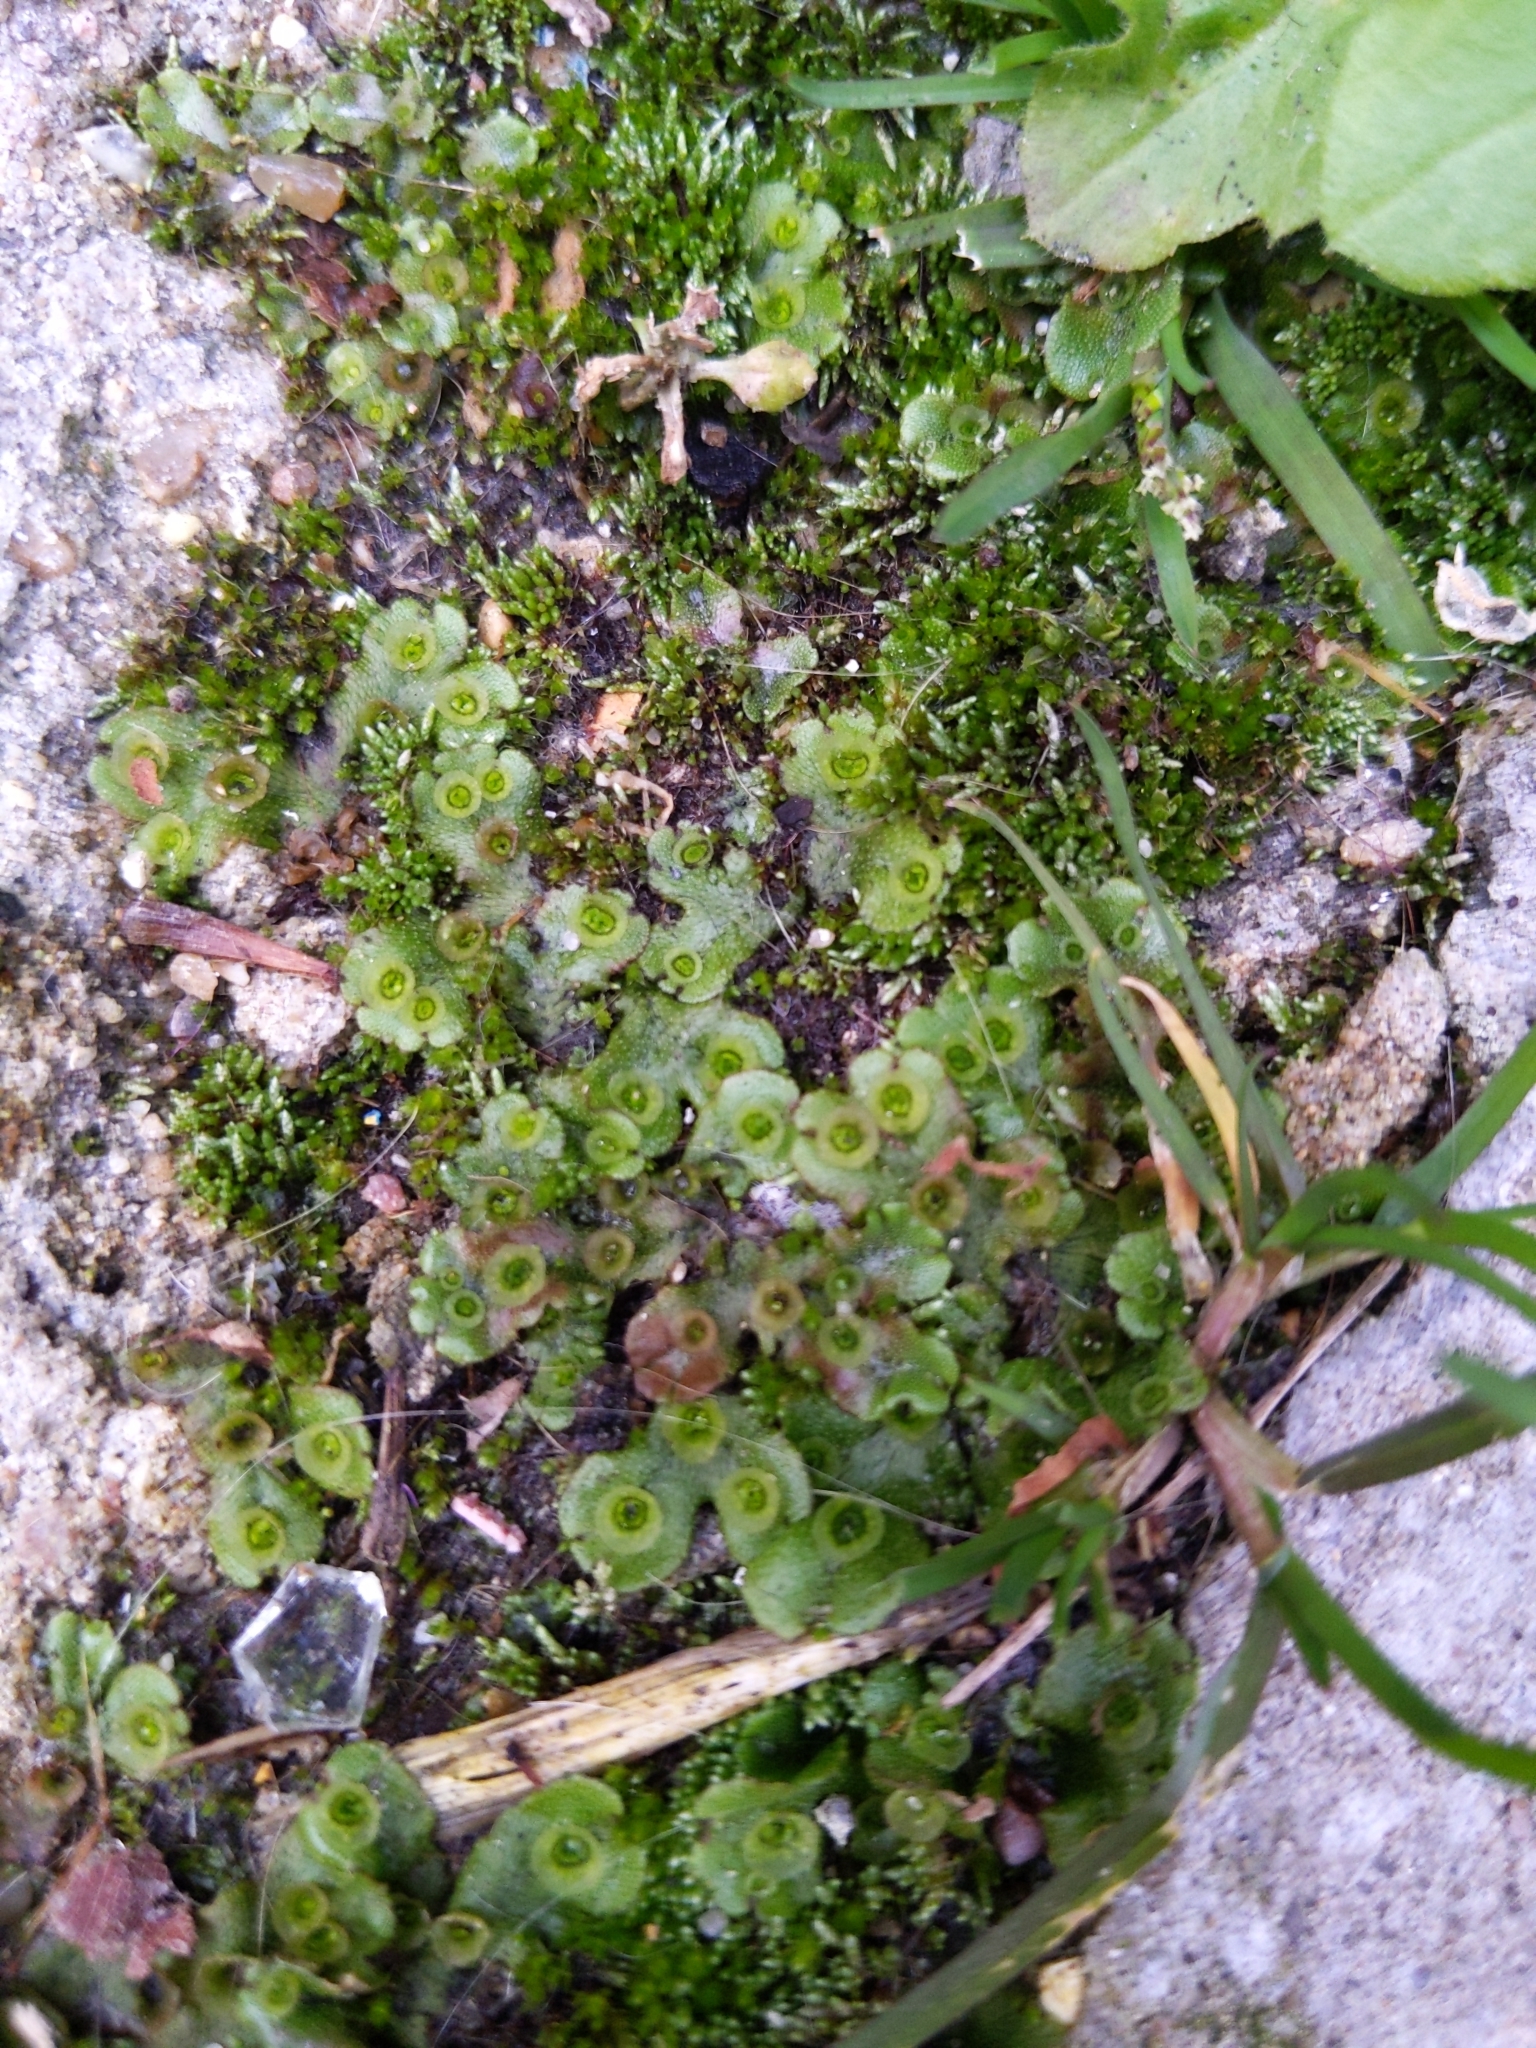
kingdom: Plantae
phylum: Marchantiophyta
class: Marchantiopsida
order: Marchantiales
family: Marchantiaceae
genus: Marchantia
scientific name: Marchantia polymorpha
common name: Common liverwort
